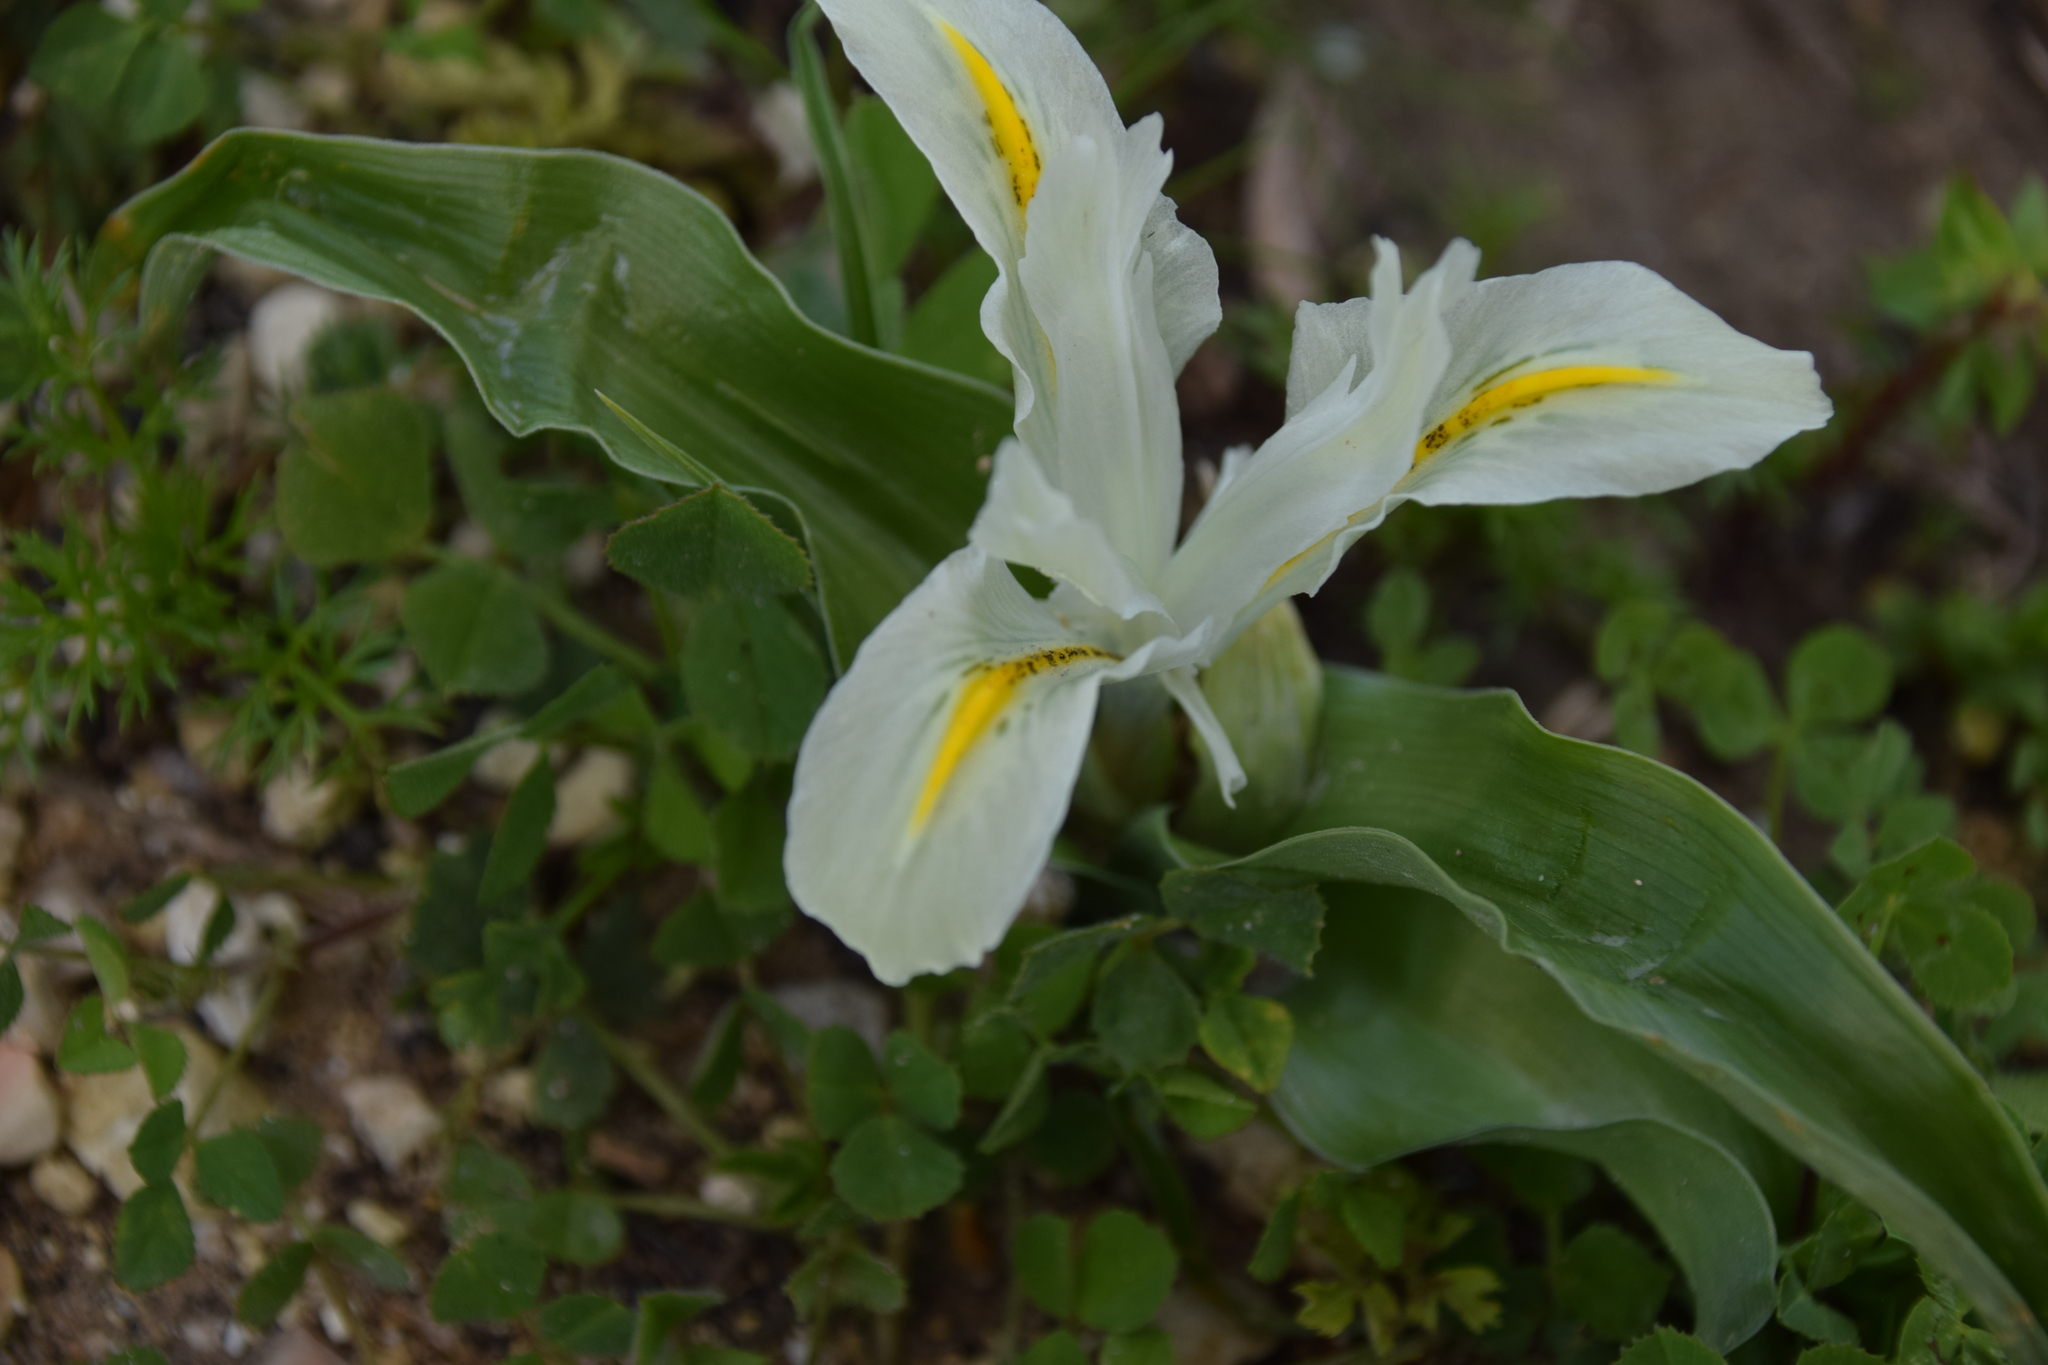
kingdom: Plantae
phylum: Tracheophyta
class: Liliopsida
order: Asparagales
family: Iridaceae
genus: Iris
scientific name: Iris palaestina
